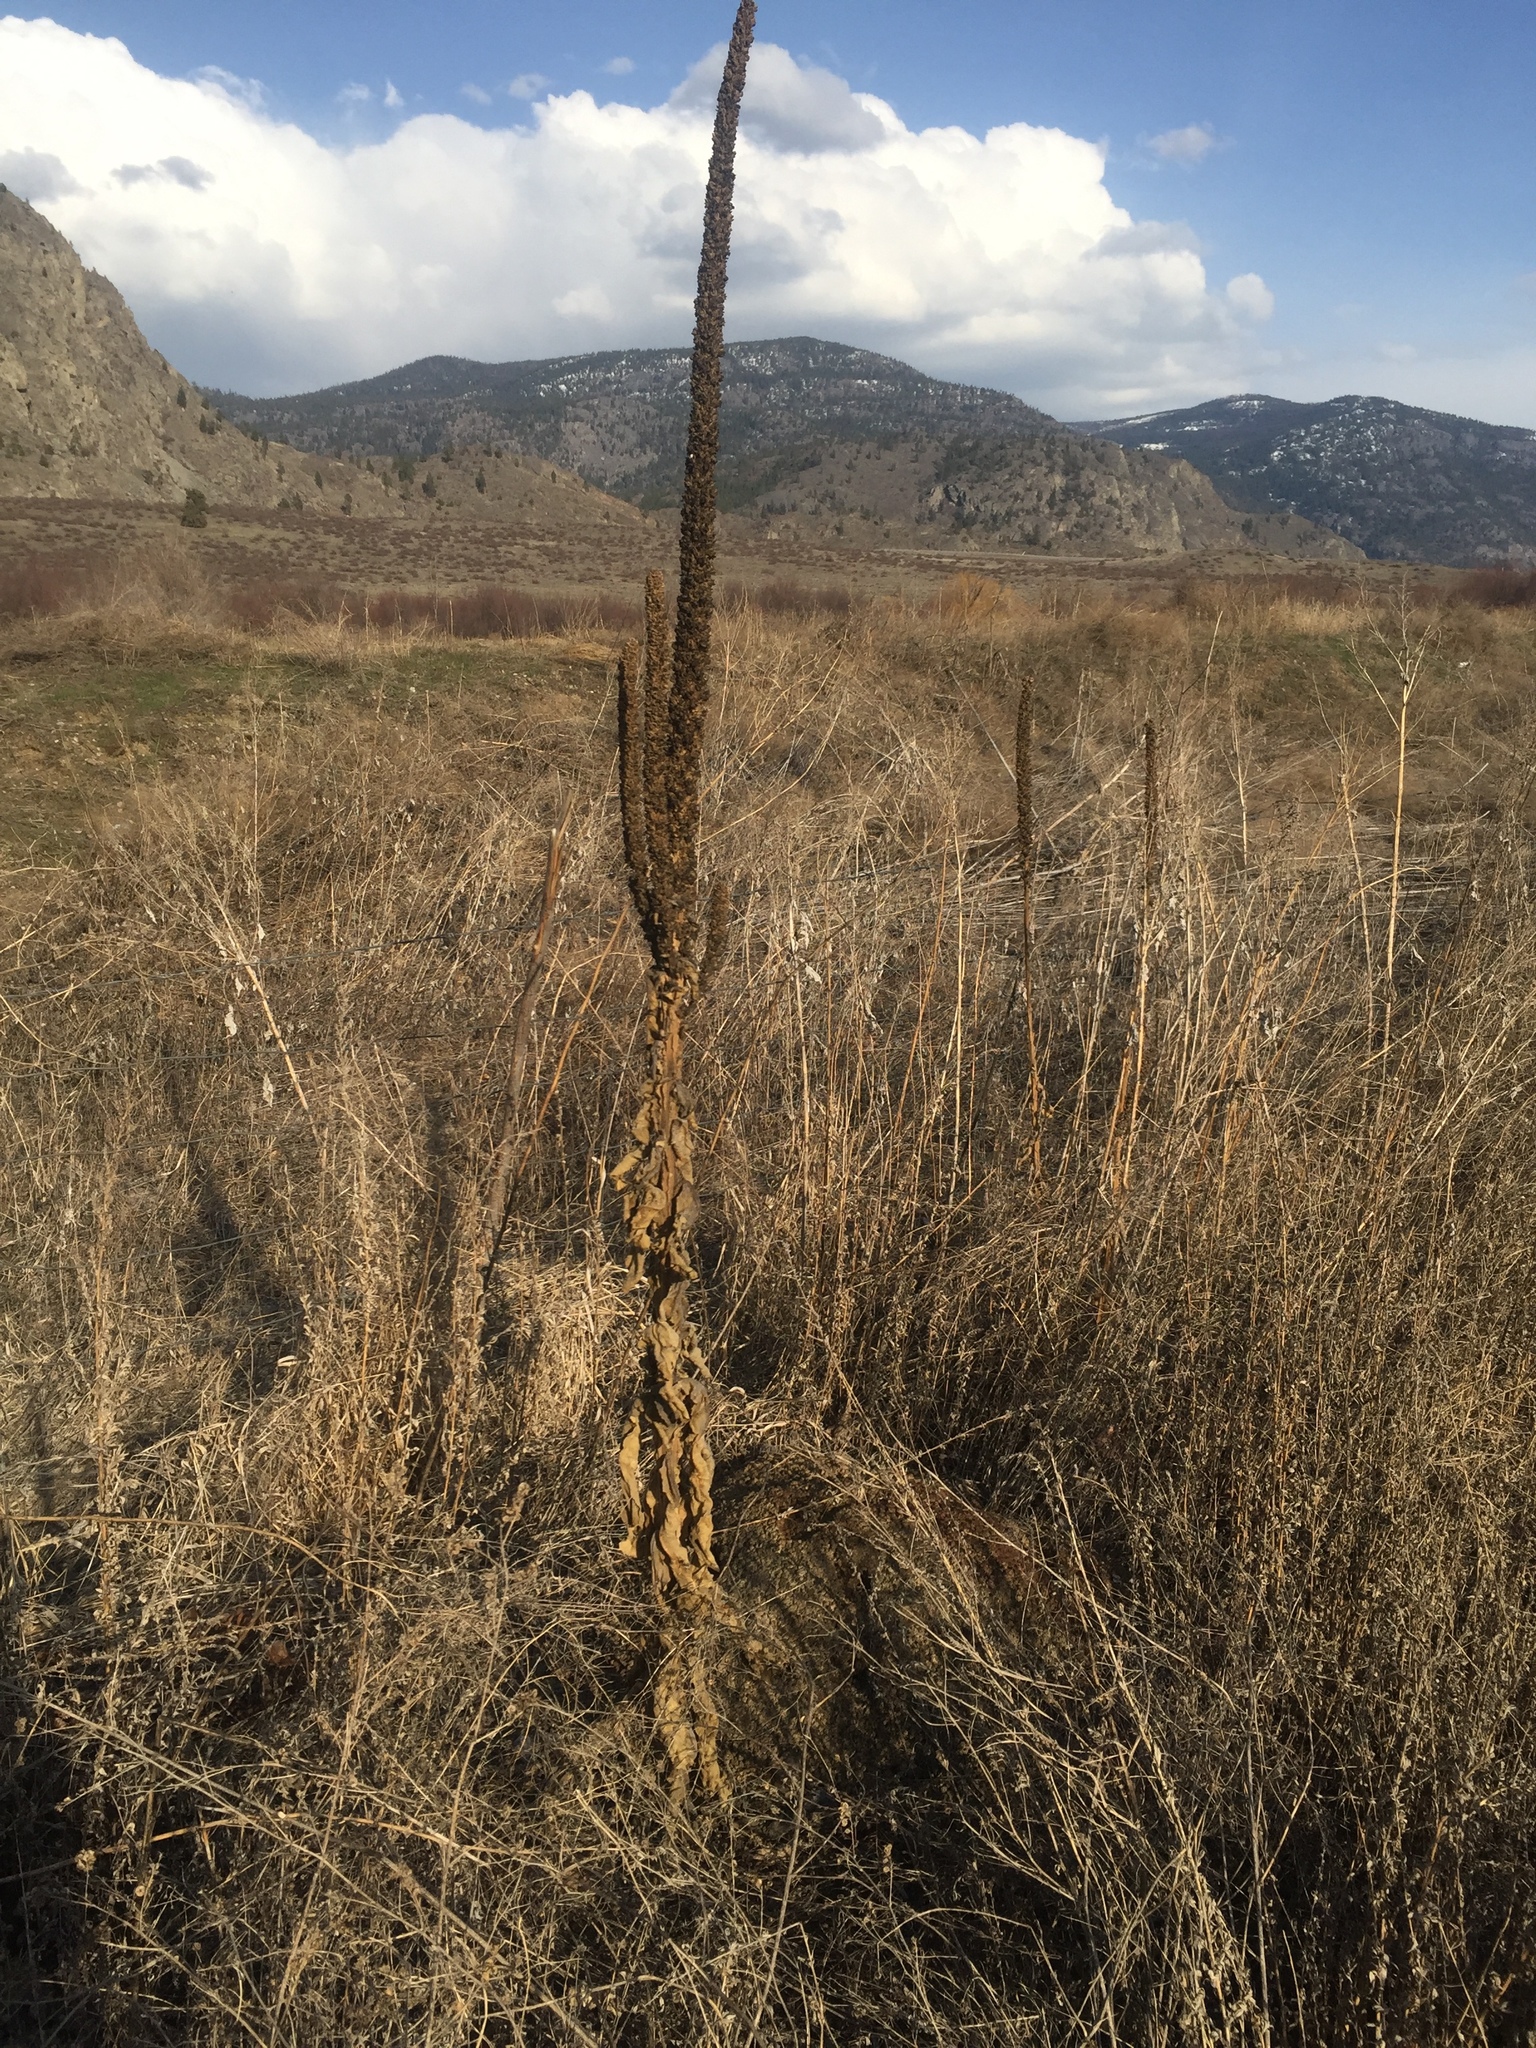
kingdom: Plantae
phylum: Tracheophyta
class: Magnoliopsida
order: Lamiales
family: Scrophulariaceae
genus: Verbascum
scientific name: Verbascum thapsus
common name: Common mullein
